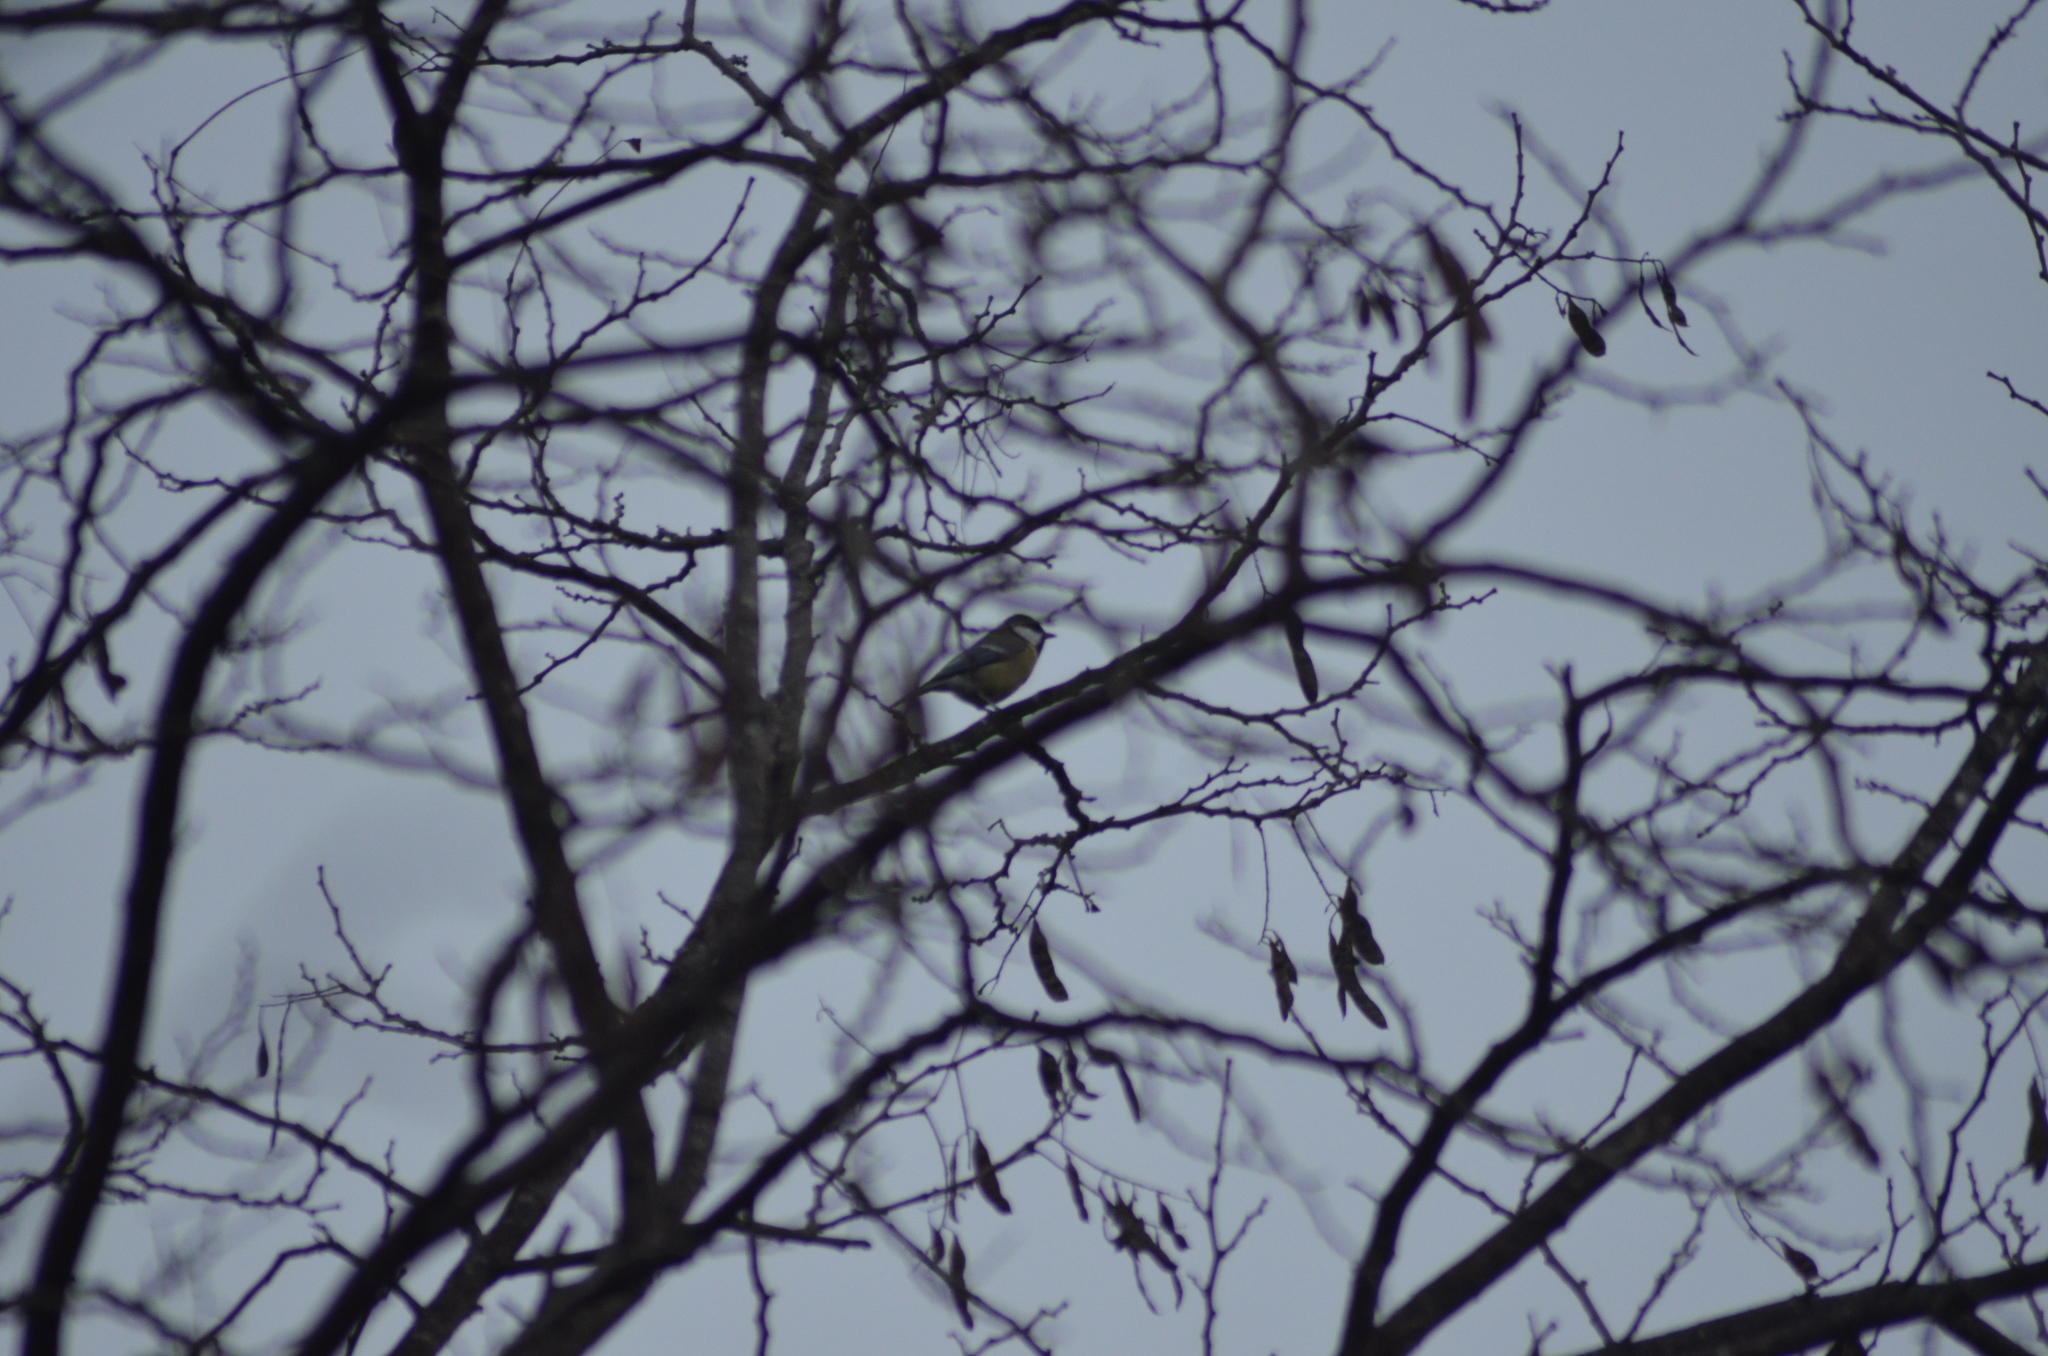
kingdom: Animalia
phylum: Chordata
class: Aves
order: Passeriformes
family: Paridae
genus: Parus
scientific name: Parus major
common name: Great tit
